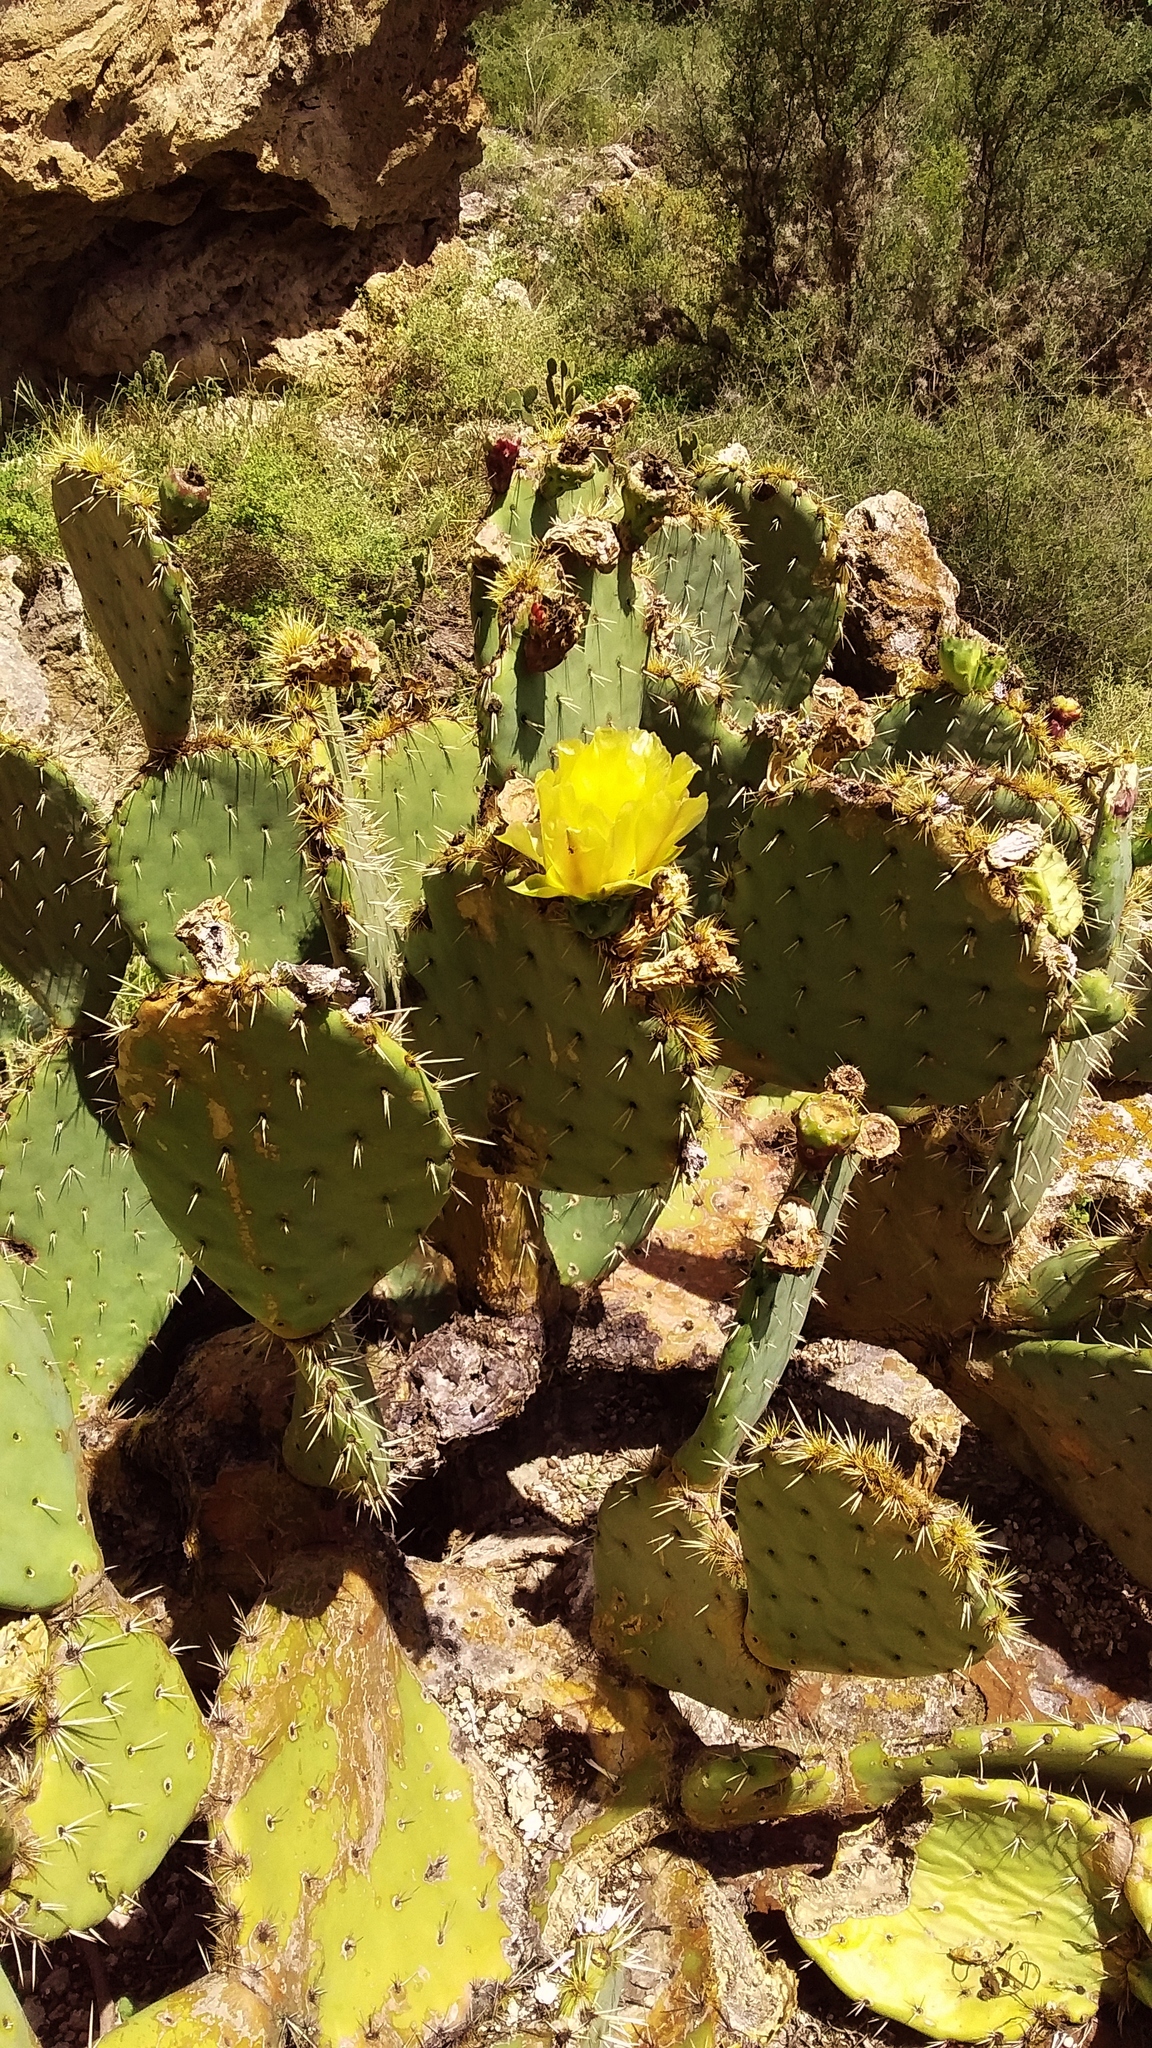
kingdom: Plantae
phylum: Tracheophyta
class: Magnoliopsida
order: Caryophyllales
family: Cactaceae
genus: Opuntia
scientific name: Opuntia engelmannii
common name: Cactus-apple
